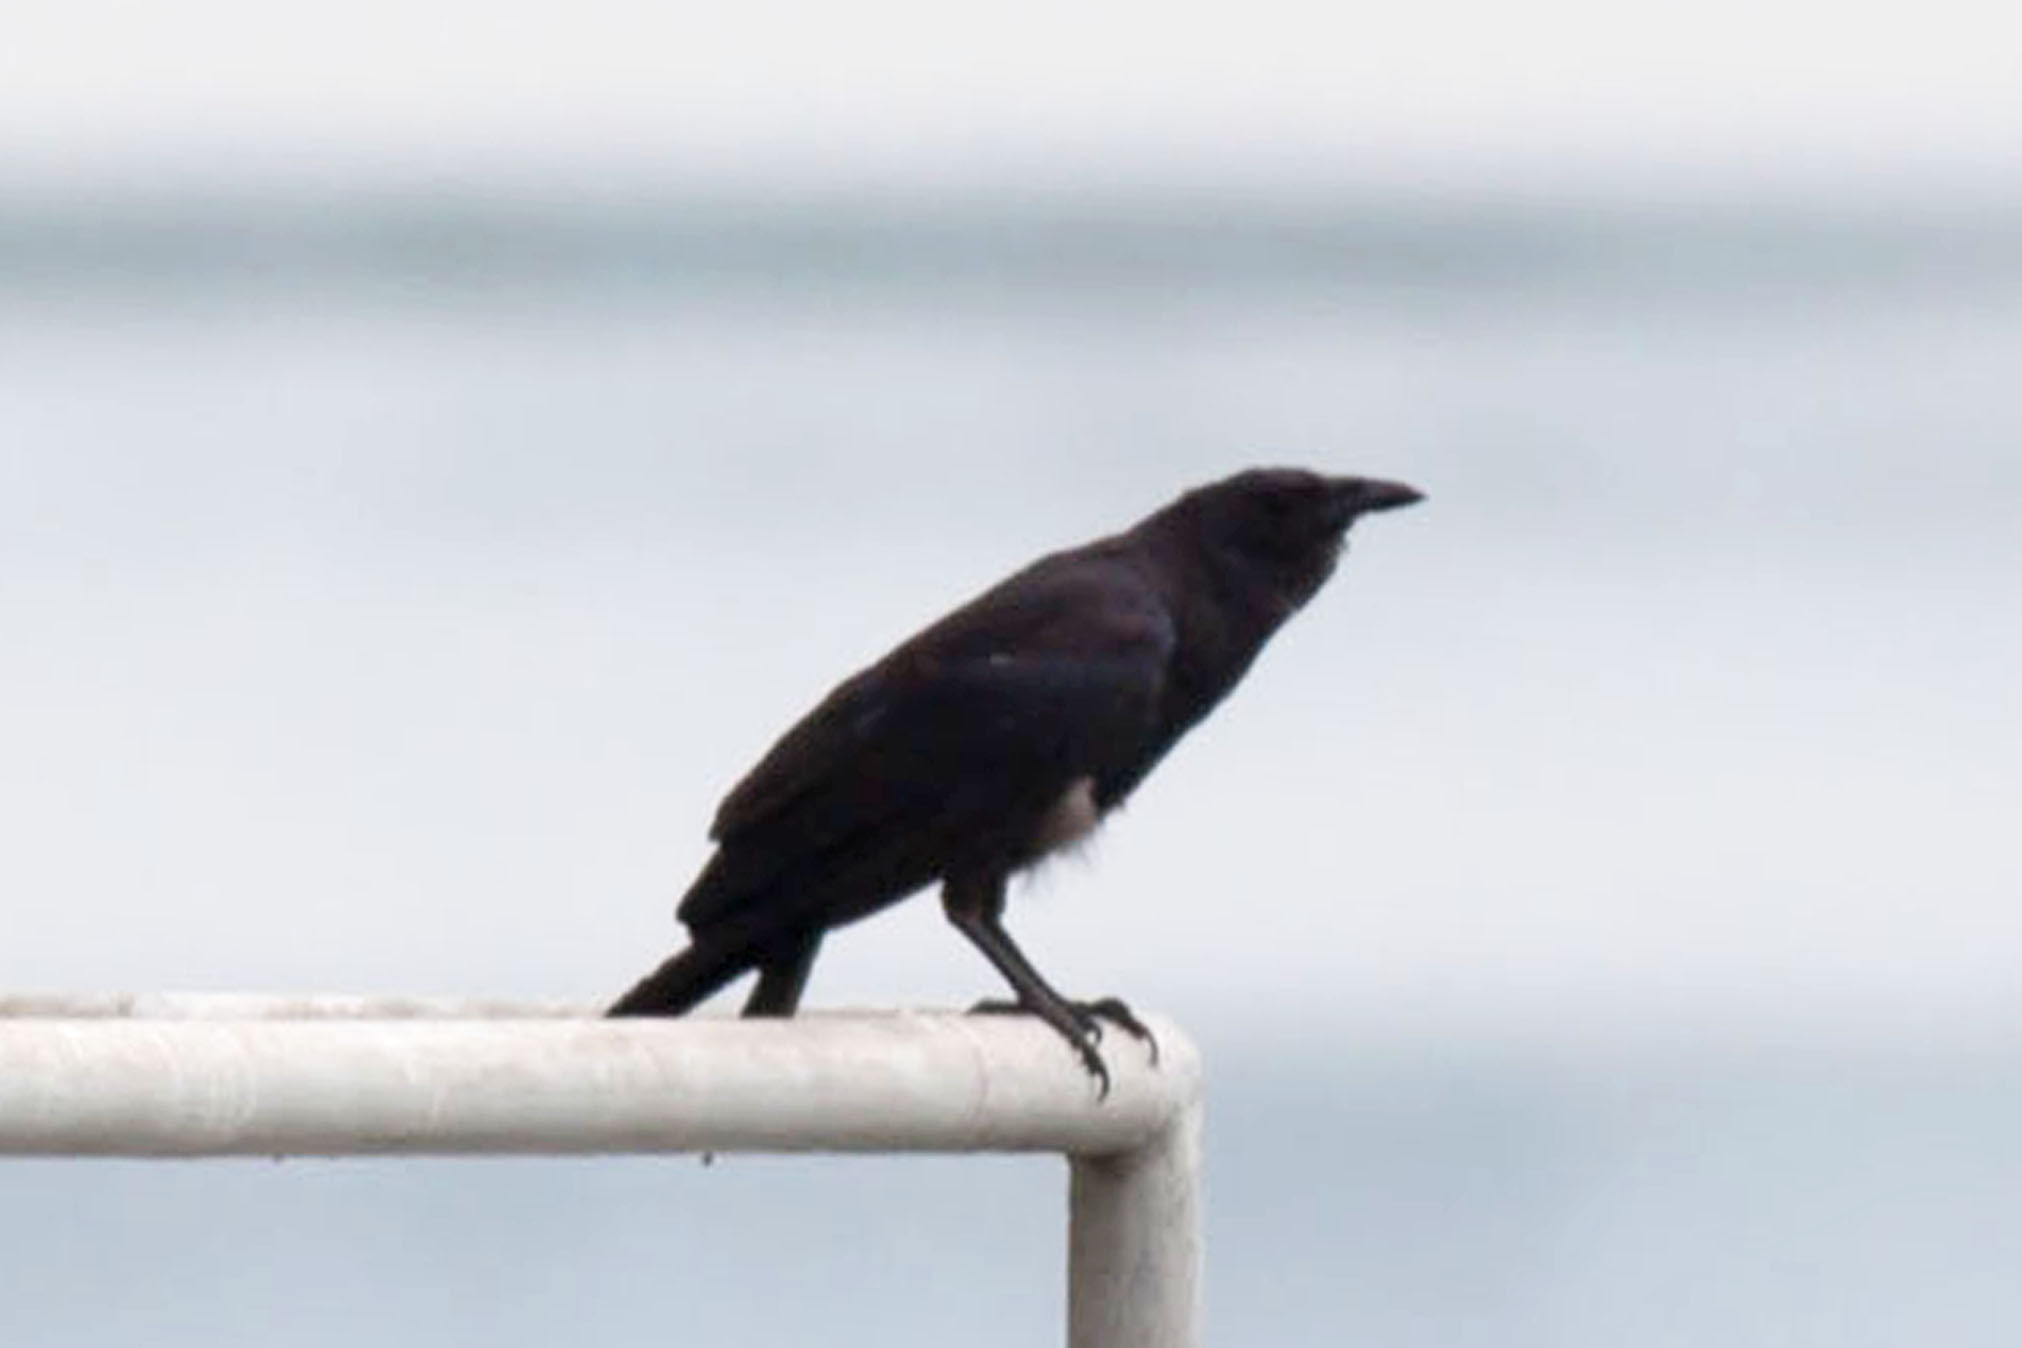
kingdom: Animalia
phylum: Chordata
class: Aves
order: Passeriformes
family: Corvidae
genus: Corvus
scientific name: Corvus ossifragus
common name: Fish crow
